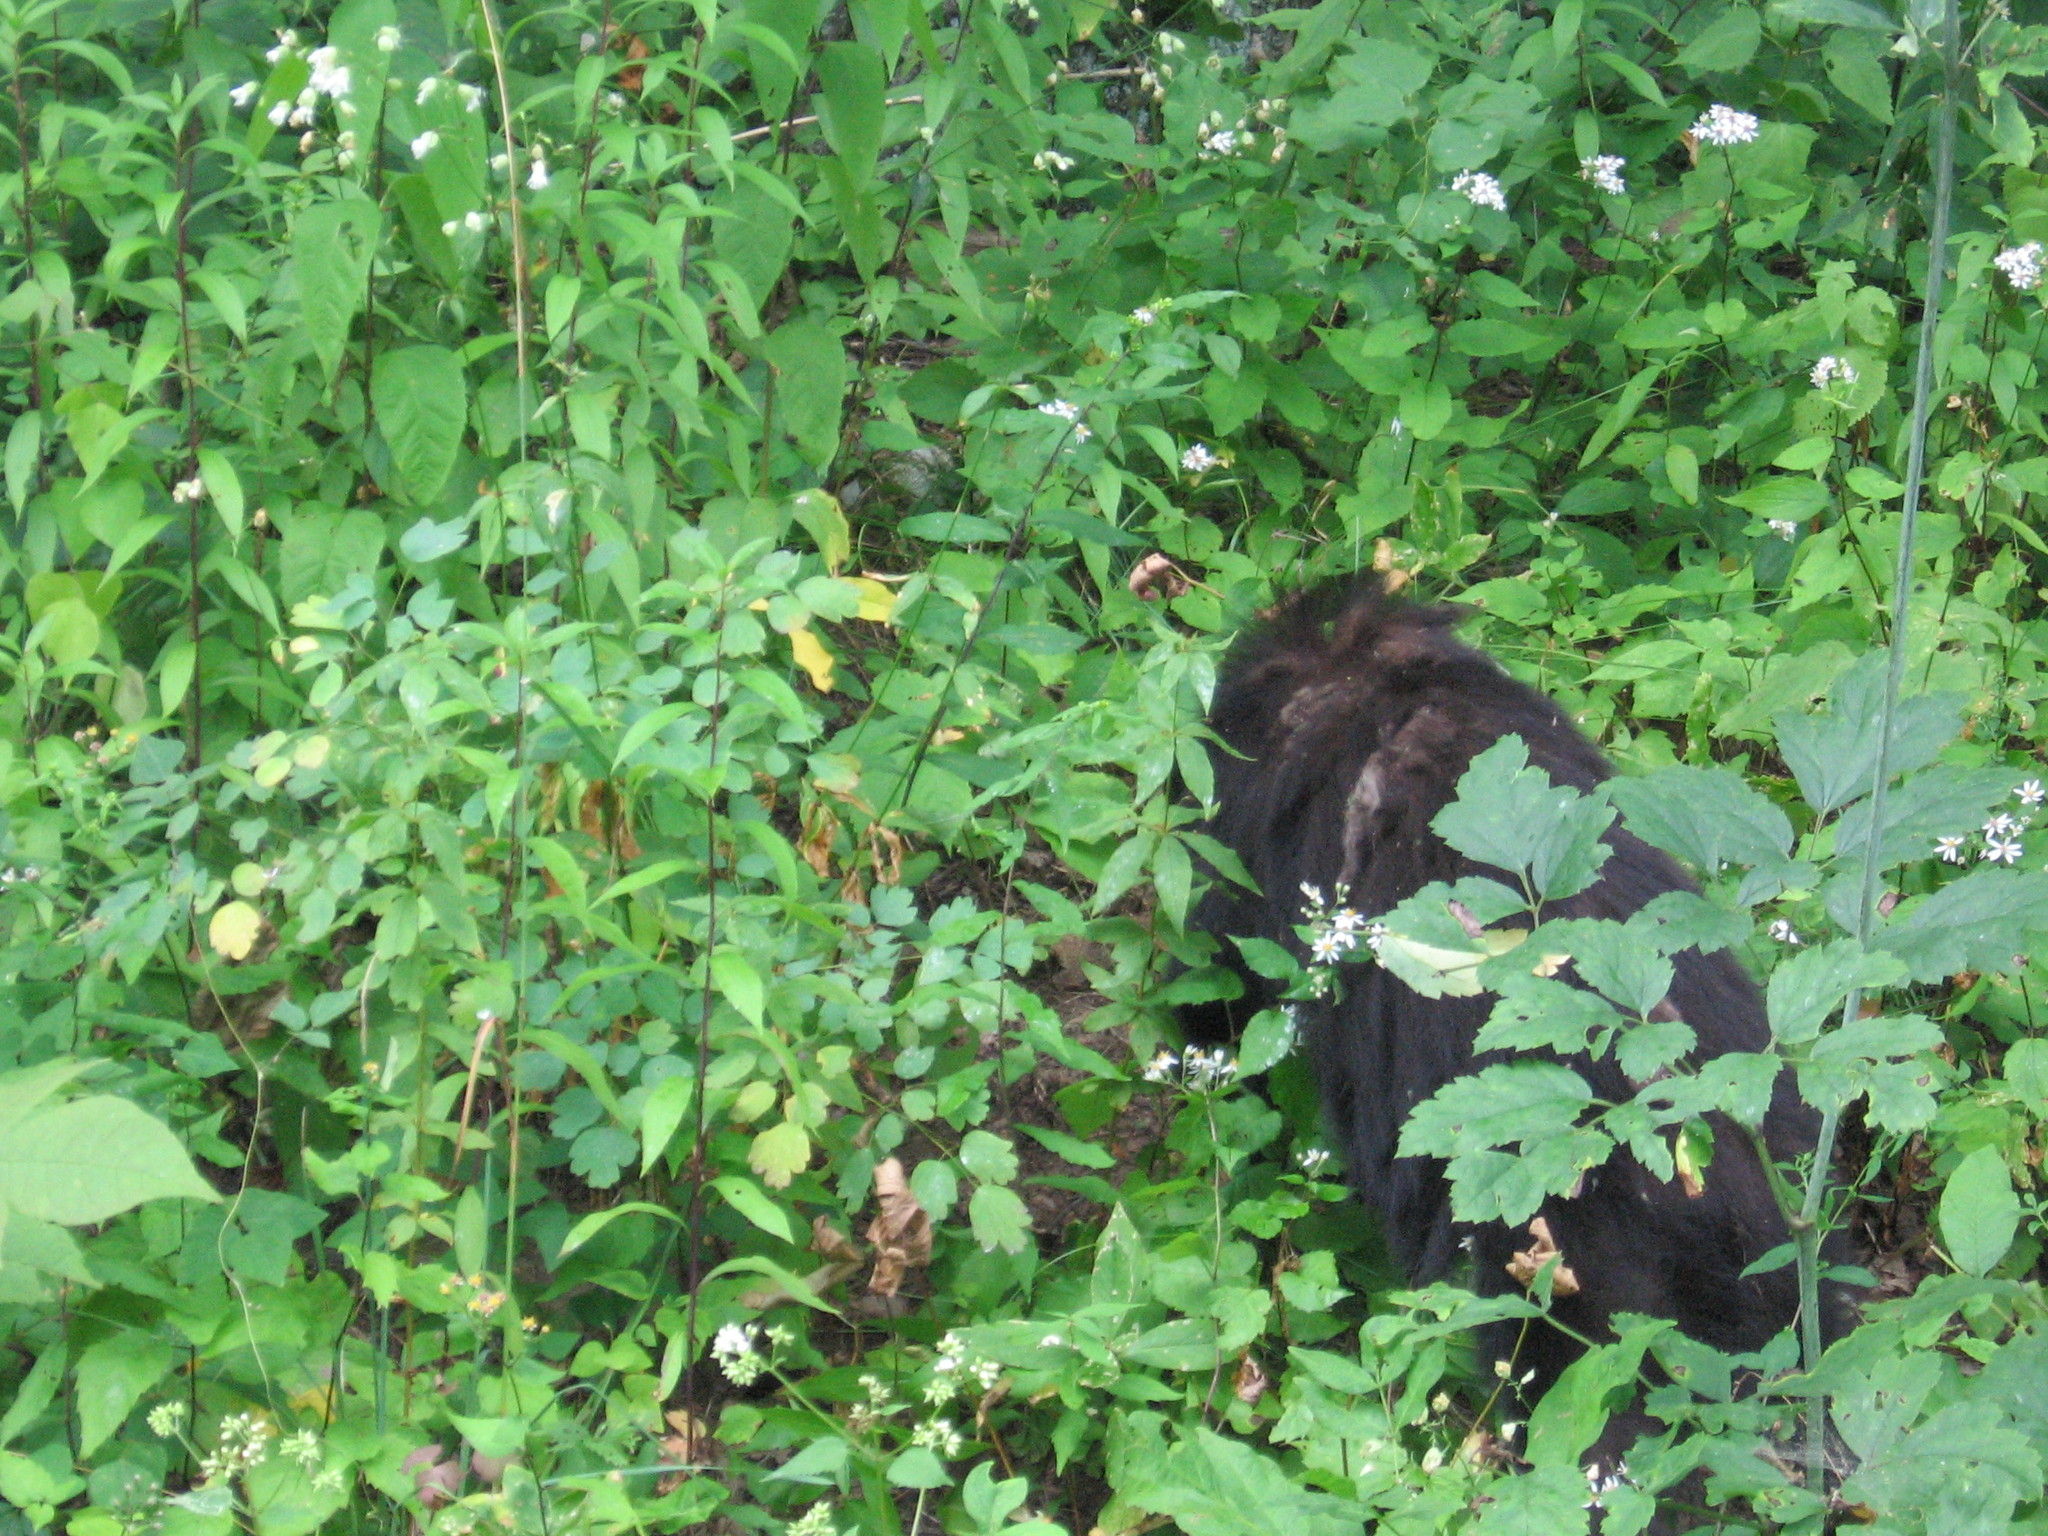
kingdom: Animalia
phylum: Chordata
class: Mammalia
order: Carnivora
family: Ursidae
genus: Ursus
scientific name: Ursus americanus
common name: American black bear
